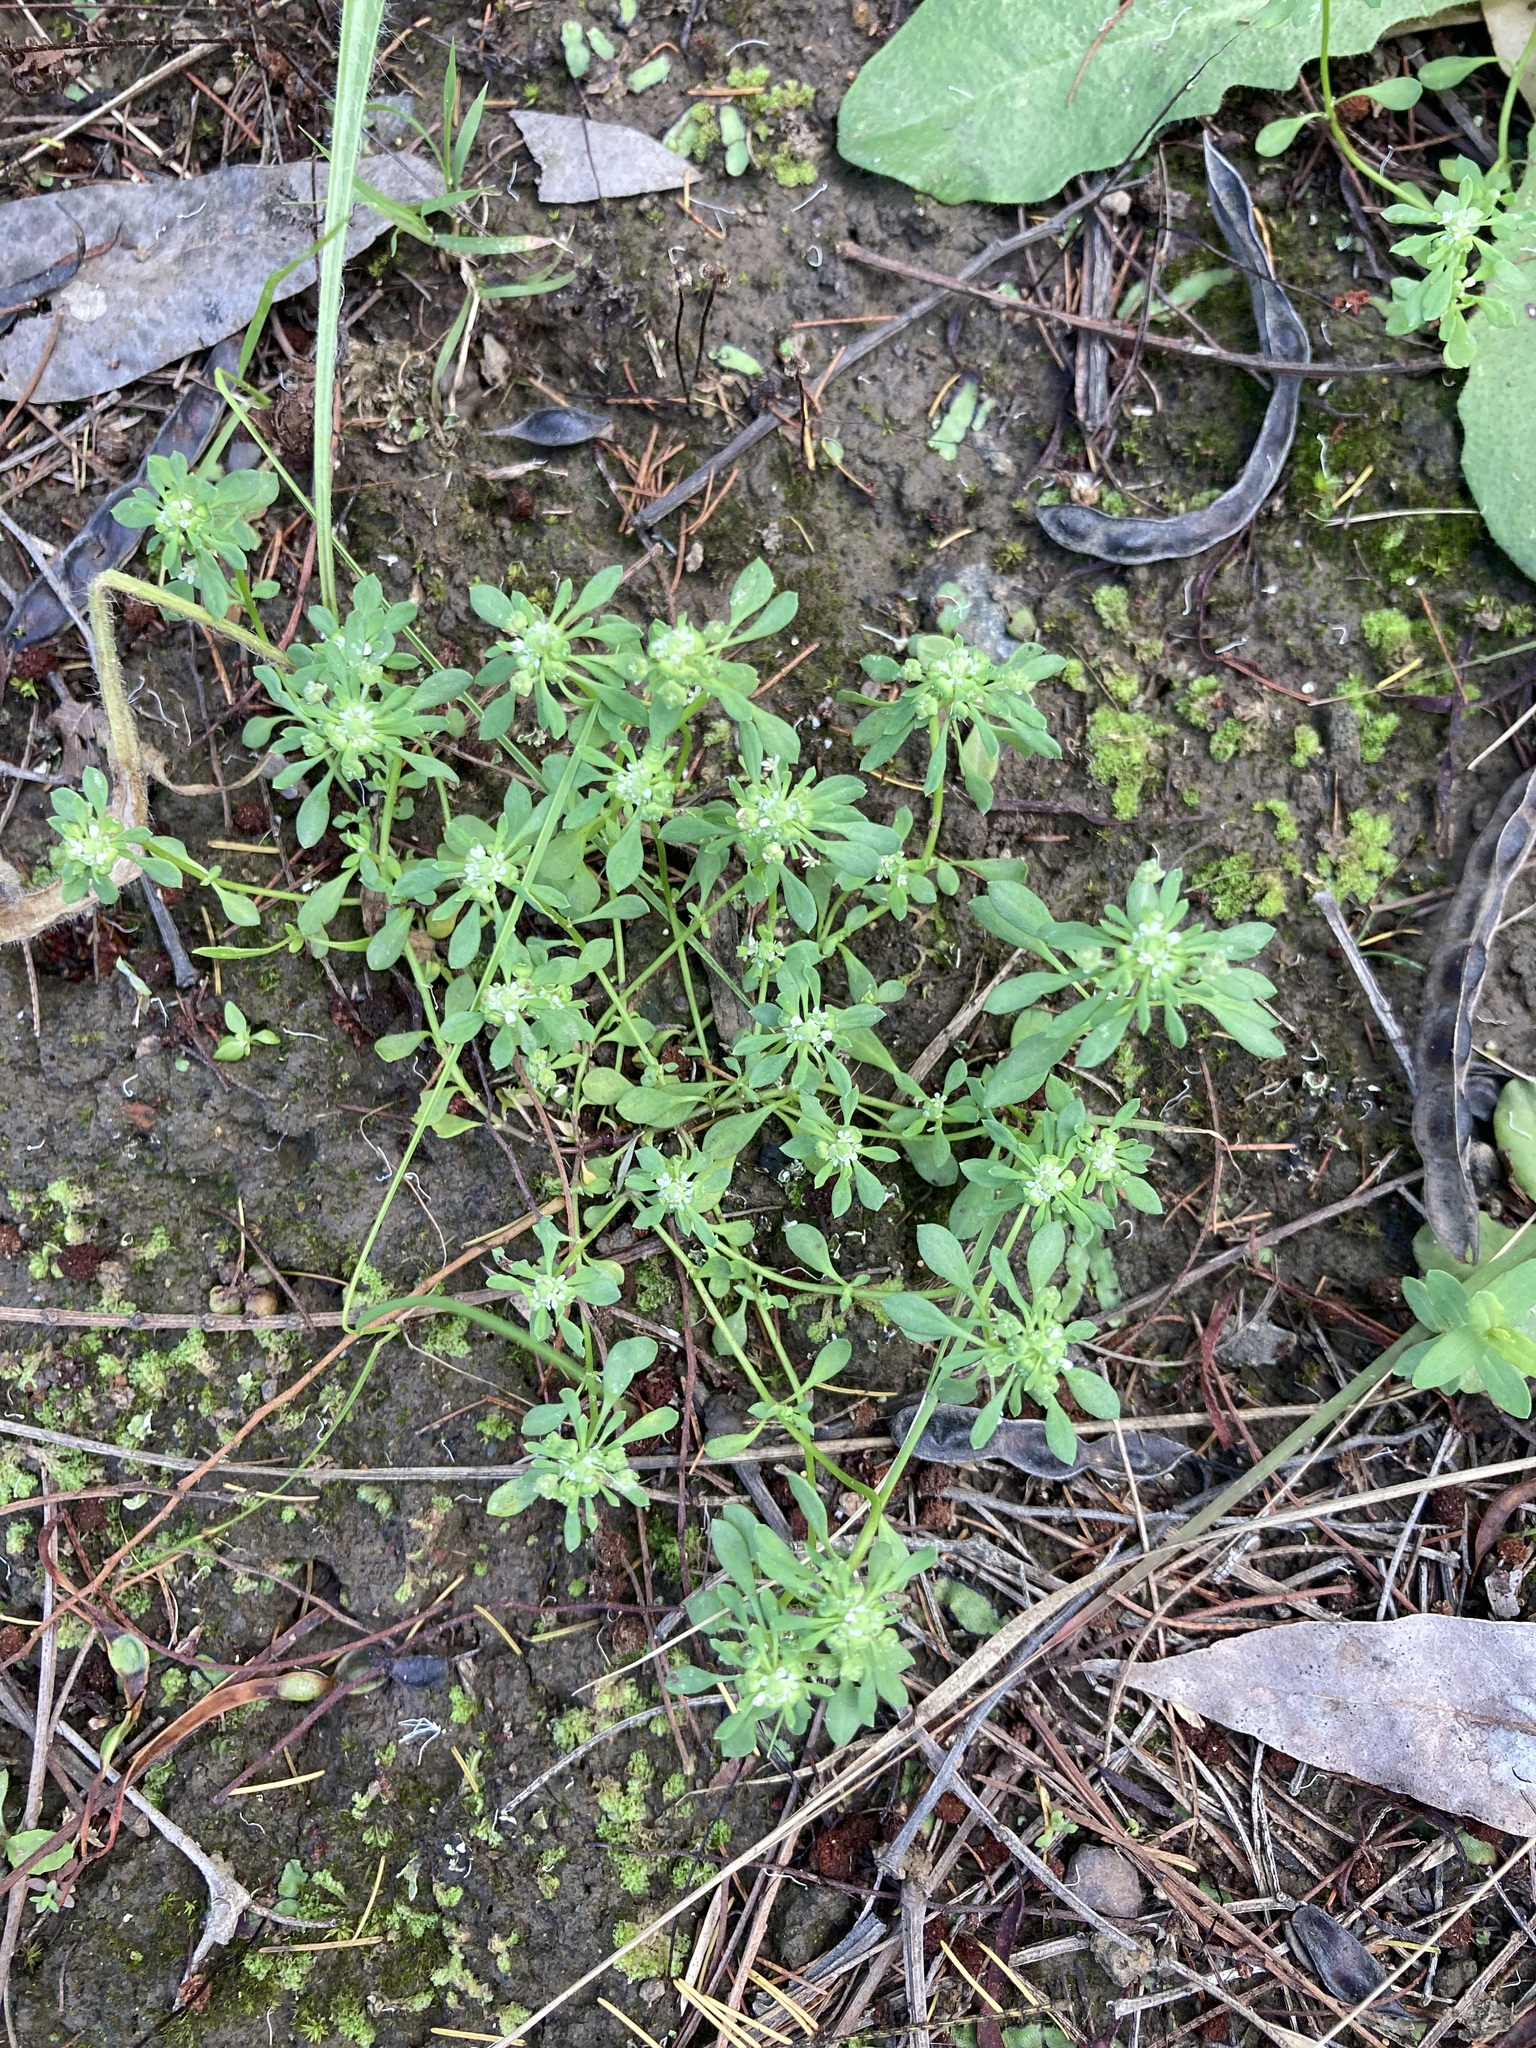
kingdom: Plantae
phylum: Tracheophyta
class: Magnoliopsida
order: Malpighiales
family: Phyllanthaceae
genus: Poranthera
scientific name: Poranthera microphylla
